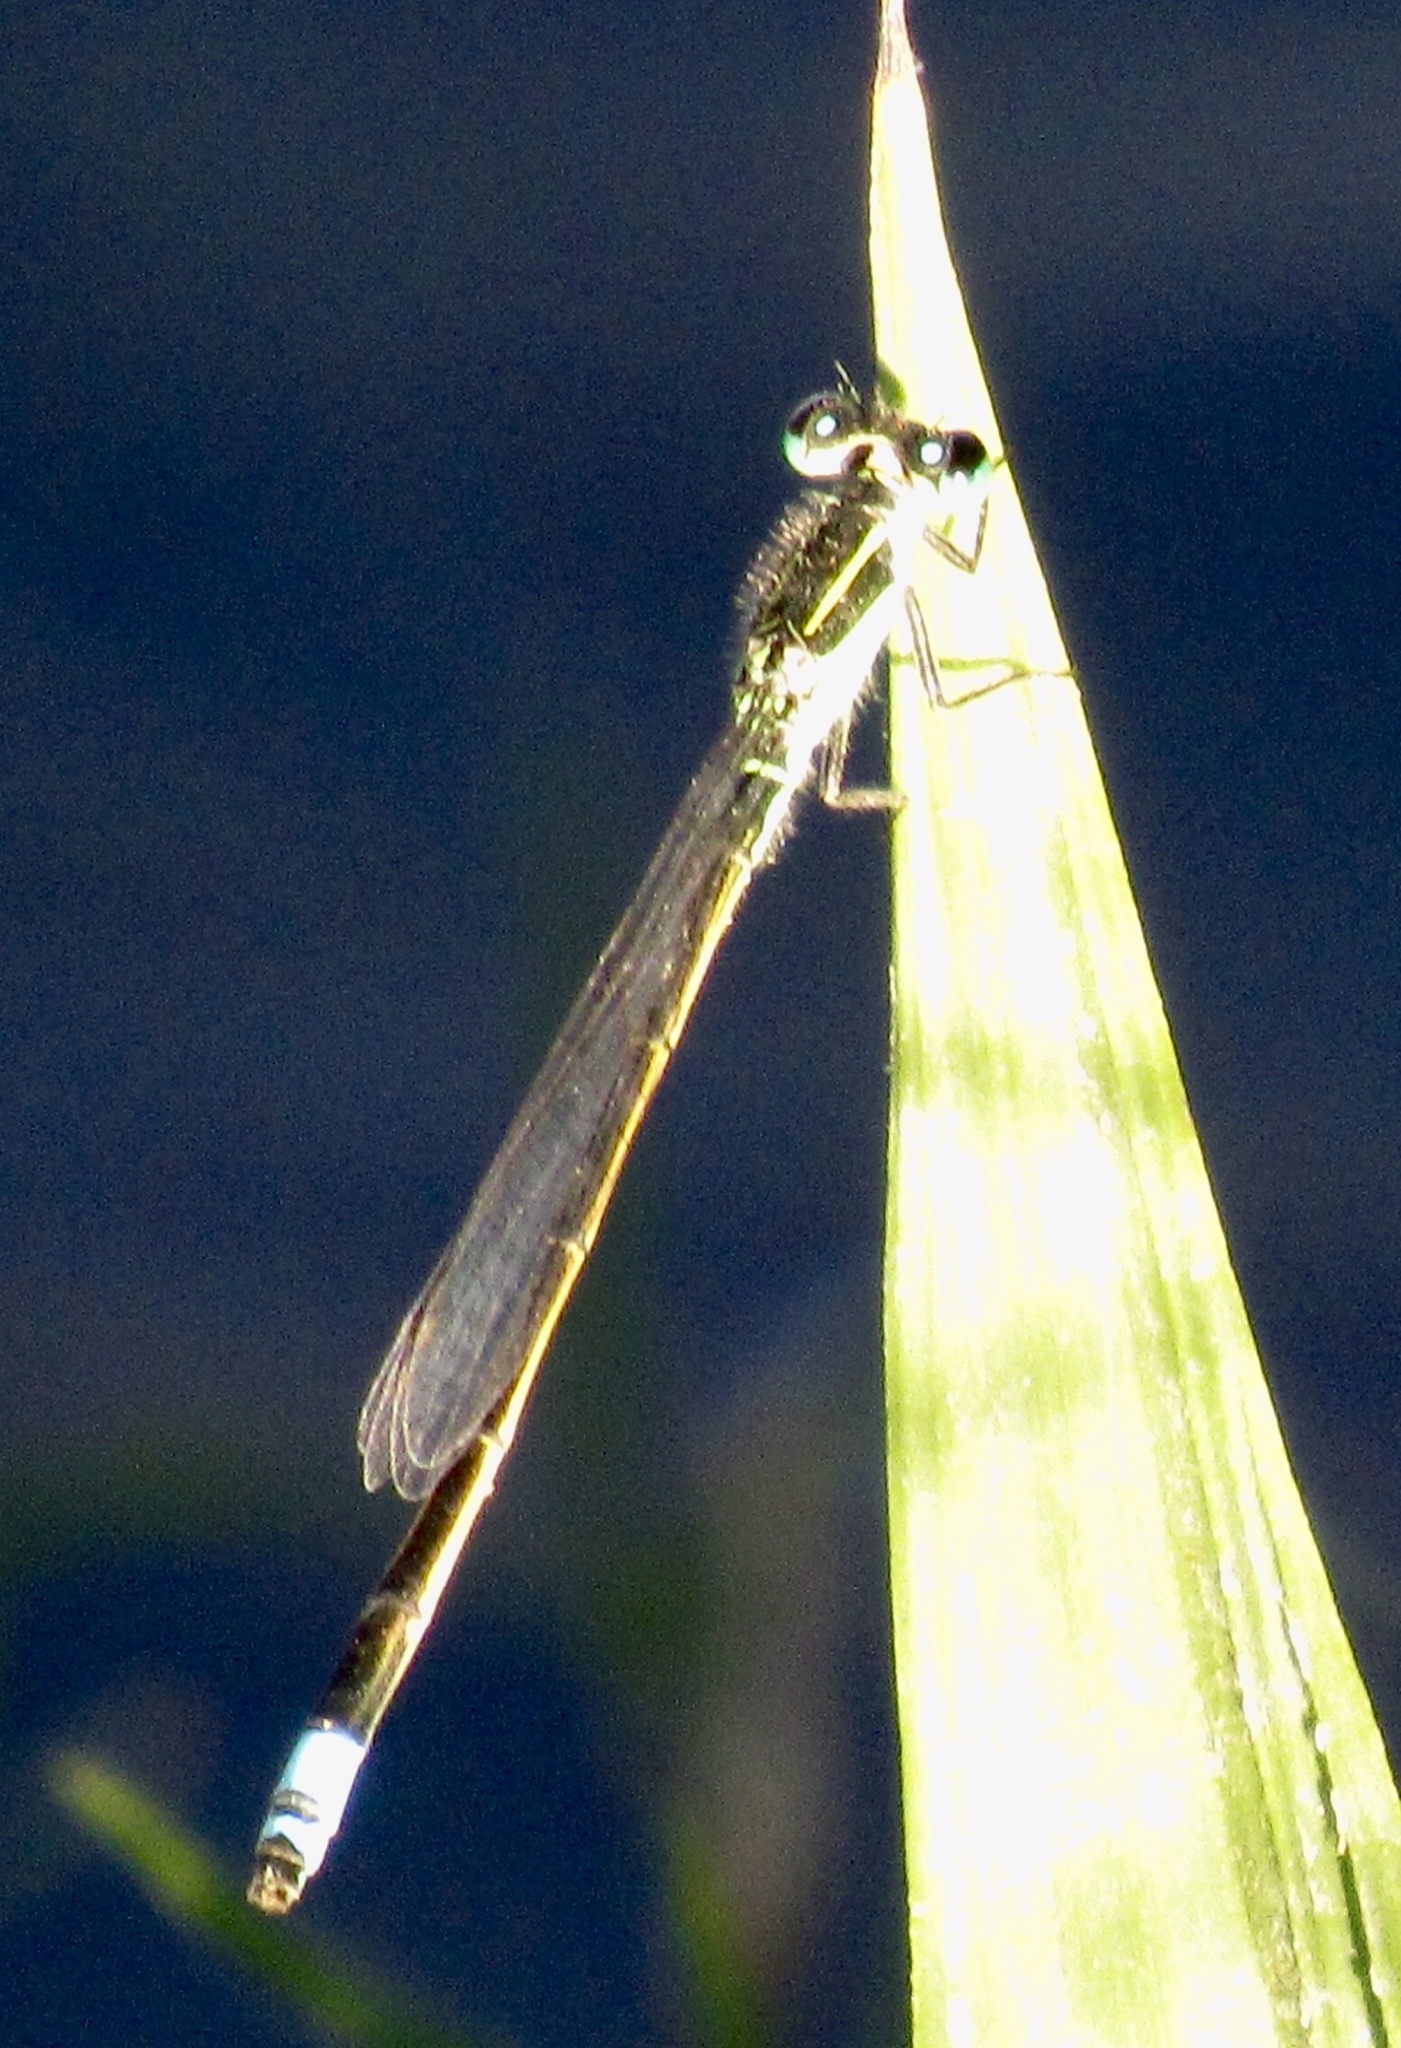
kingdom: Animalia
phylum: Arthropoda
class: Insecta
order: Odonata
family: Coenagrionidae
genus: Ischnura
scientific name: Ischnura ramburii
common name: Rambur's forktail
